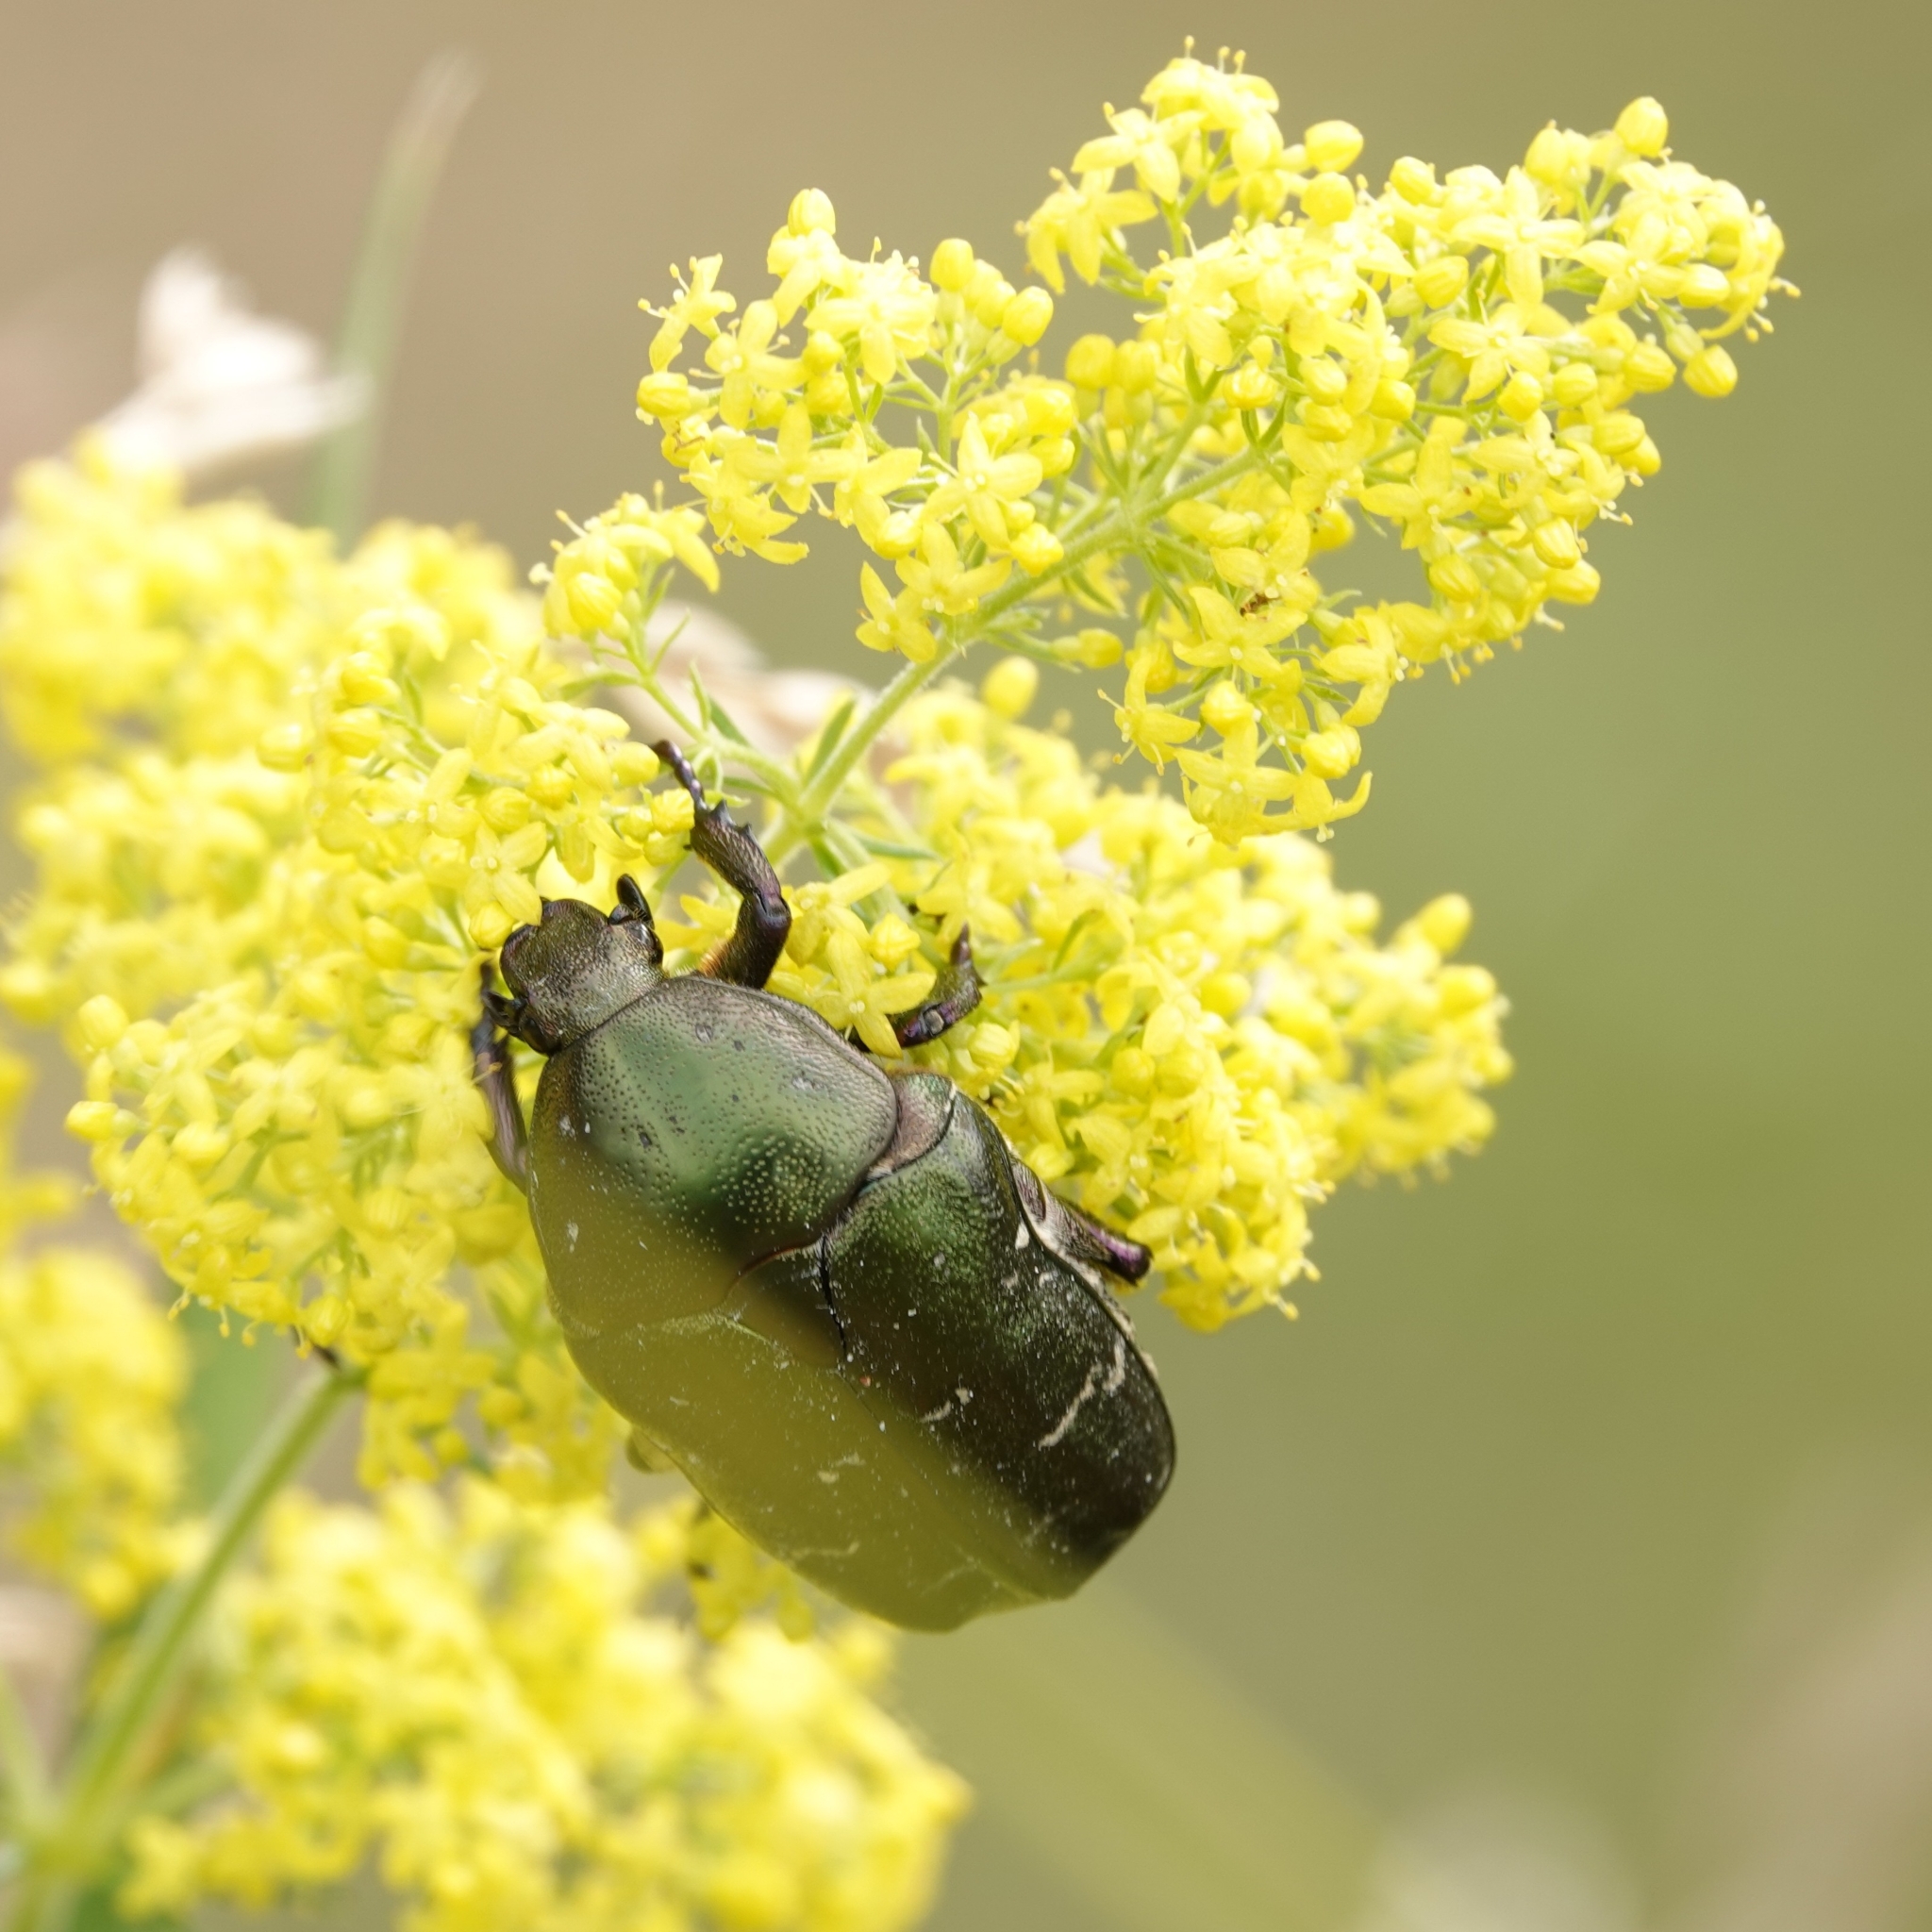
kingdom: Animalia
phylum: Arthropoda
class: Insecta
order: Coleoptera
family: Scarabaeidae
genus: Protaetia
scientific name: Protaetia cuprea
